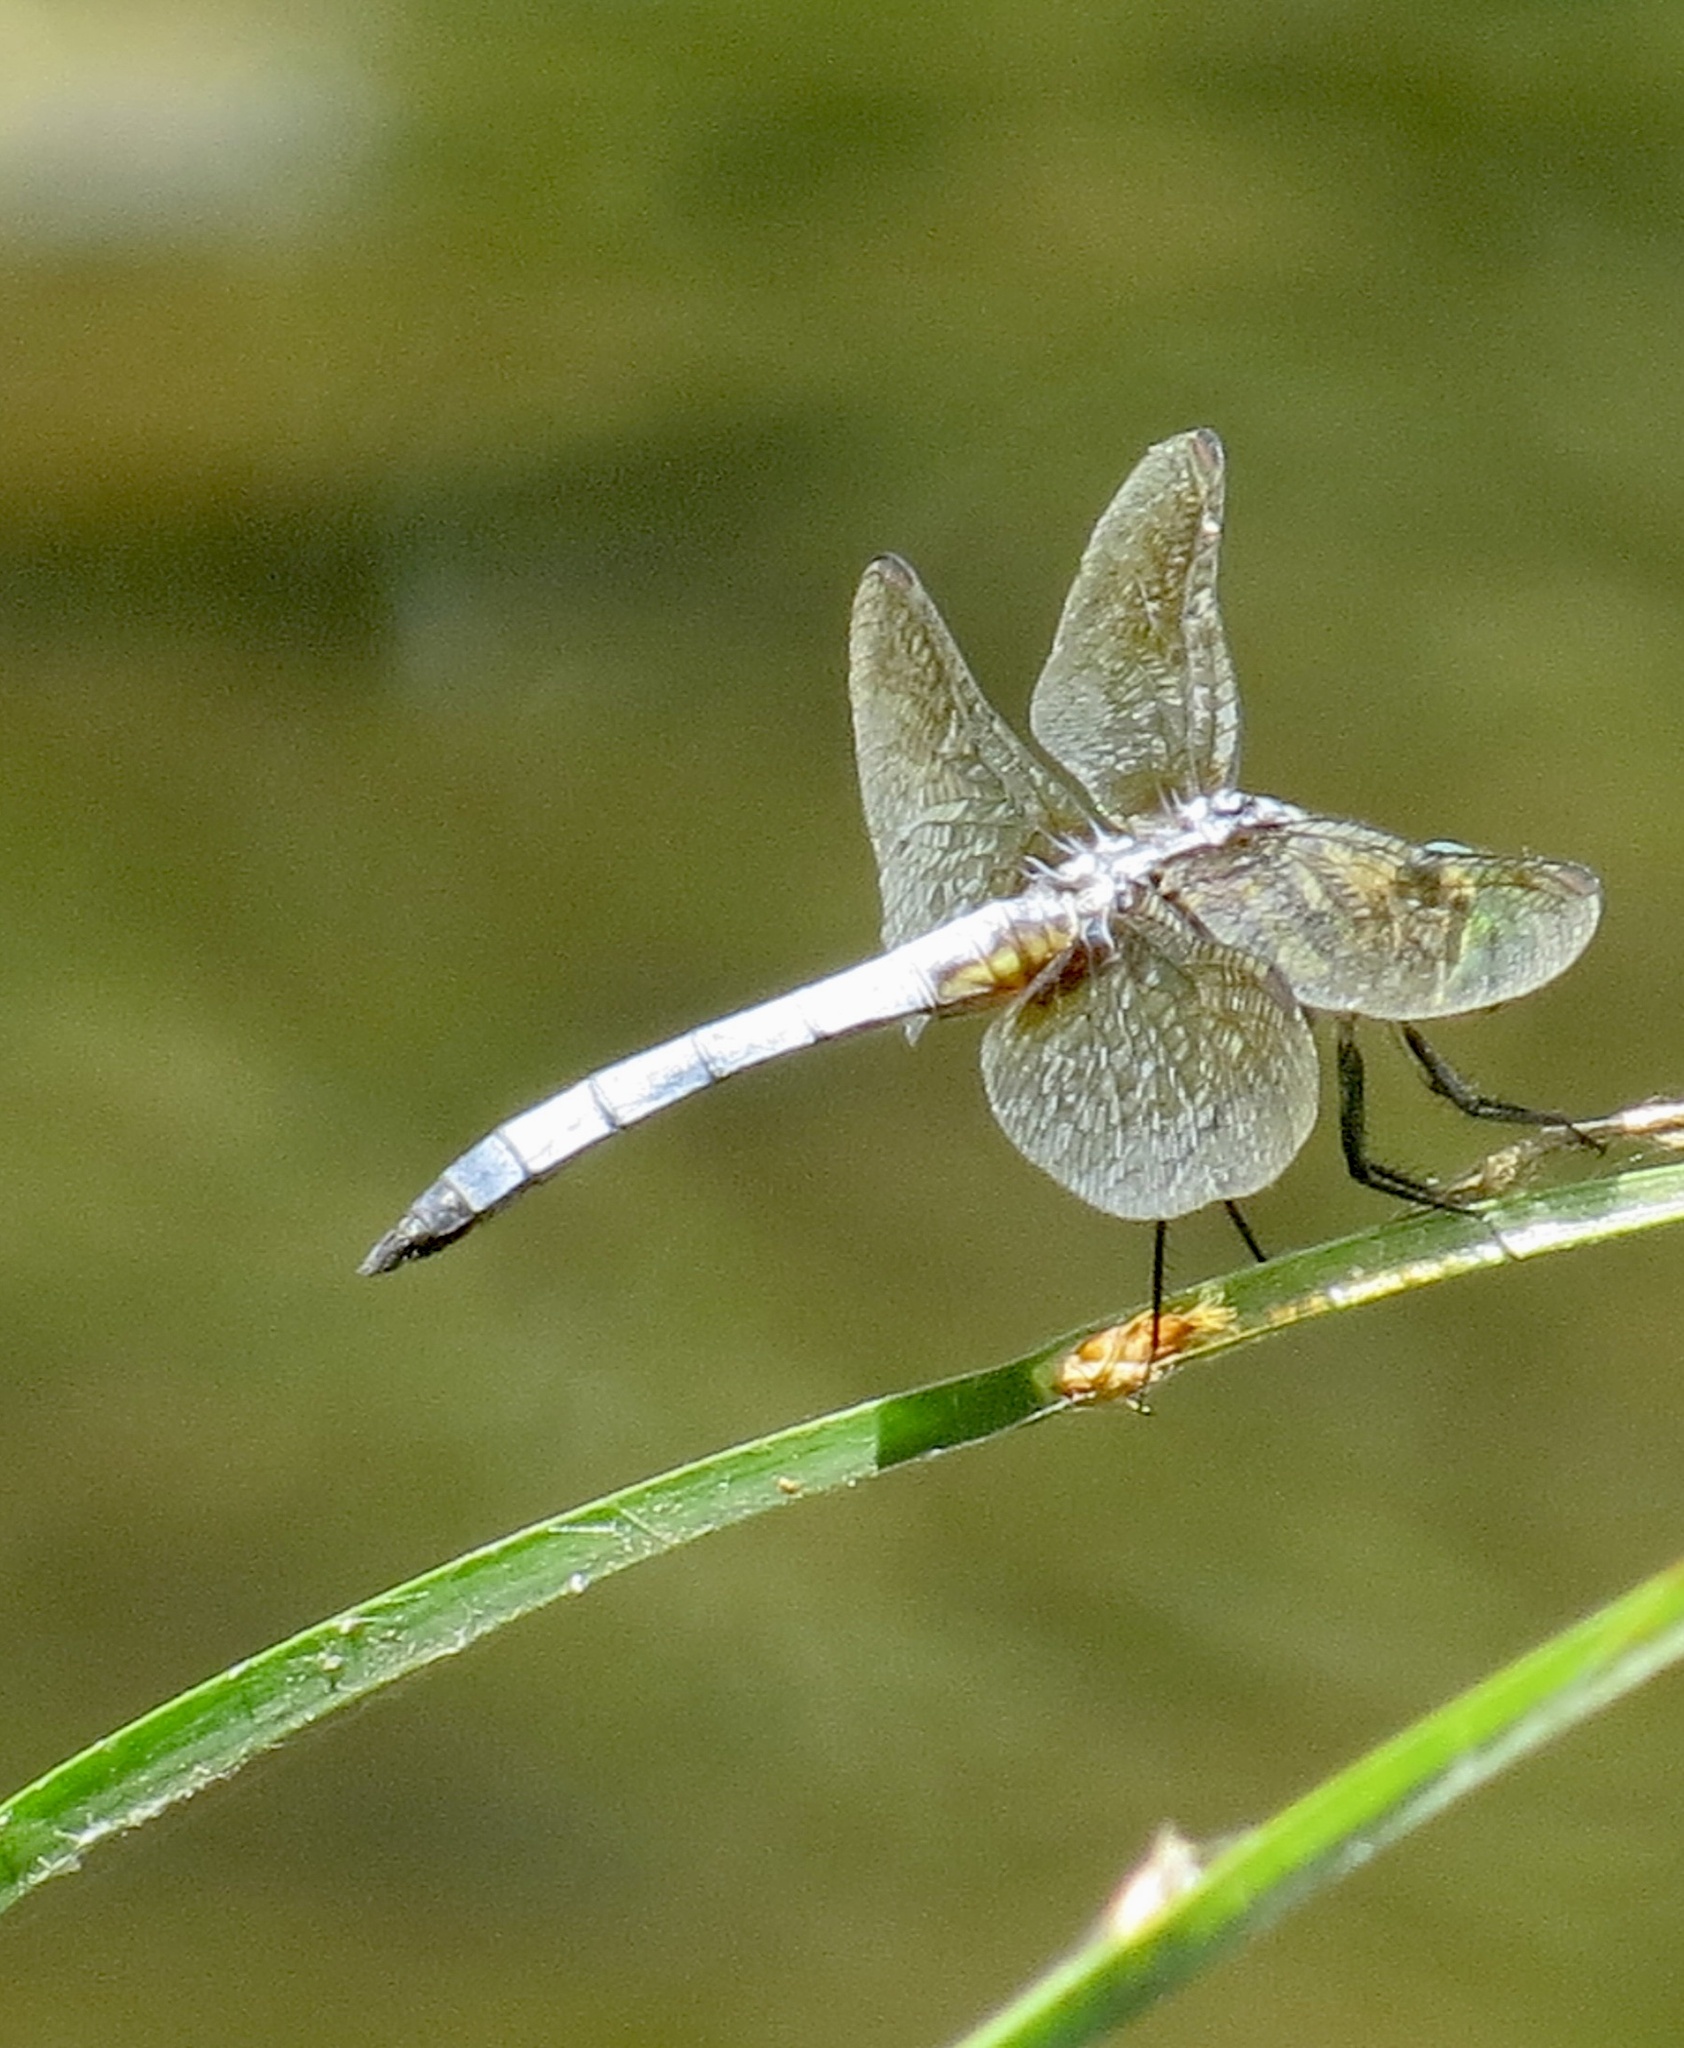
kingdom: Animalia
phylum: Arthropoda
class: Insecta
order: Odonata
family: Libellulidae
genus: Pachydiplax
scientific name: Pachydiplax longipennis
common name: Blue dasher
